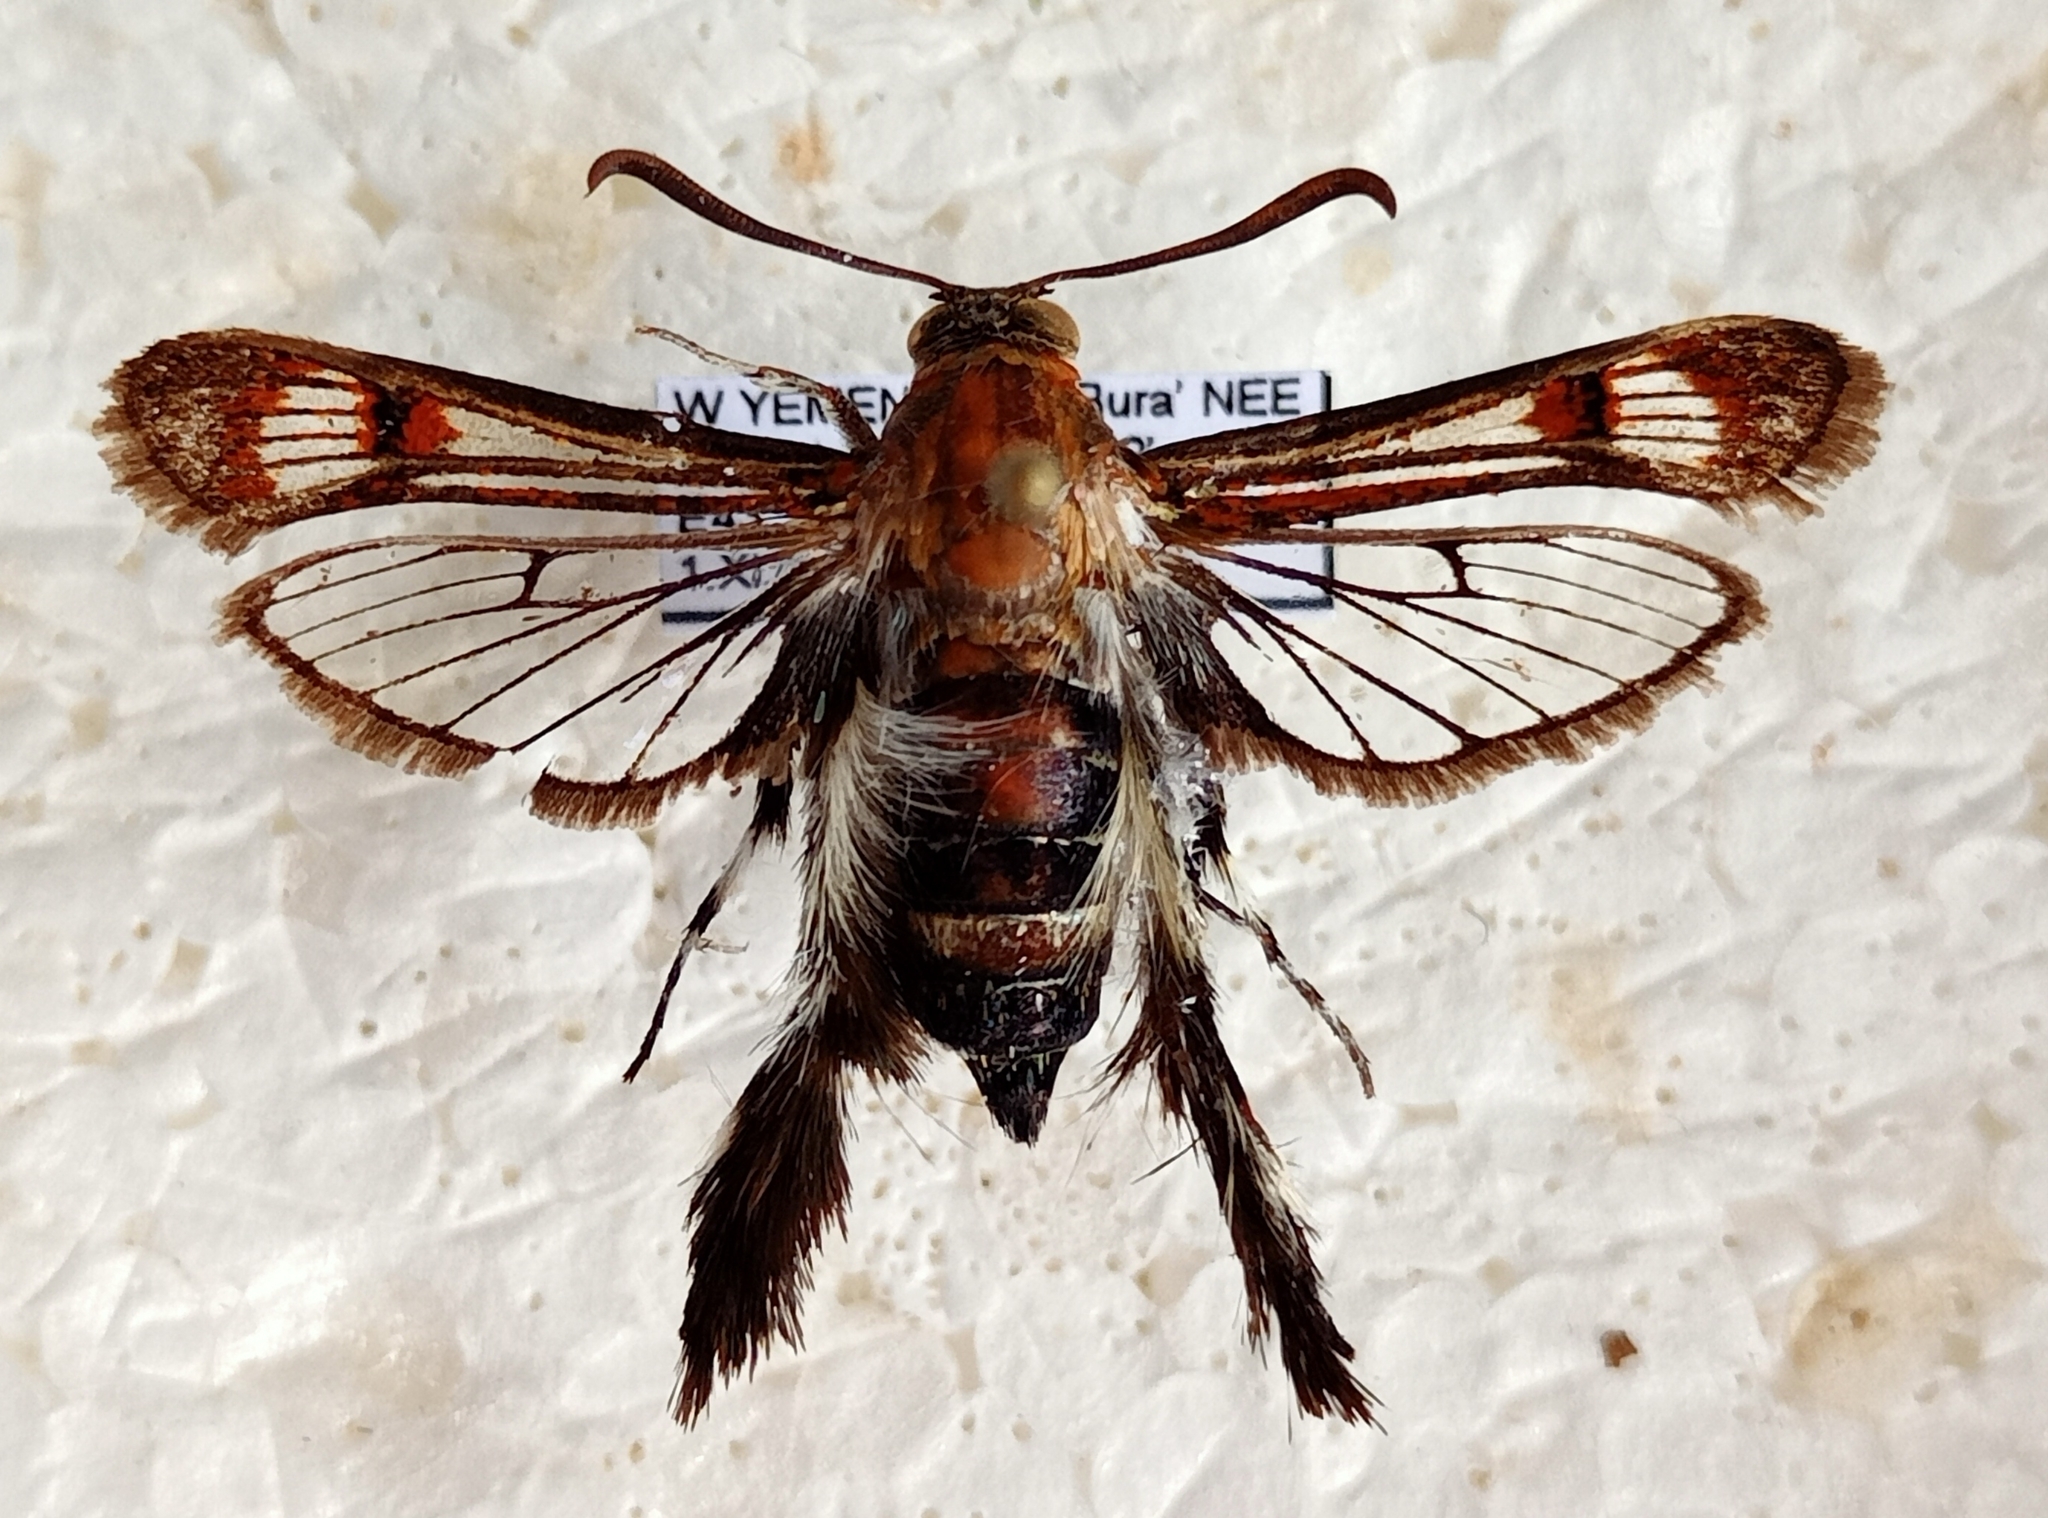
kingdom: Animalia
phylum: Arthropoda
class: Insecta
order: Lepidoptera
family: Sesiidae
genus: Melittia
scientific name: Melittia oedipus
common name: Moth
